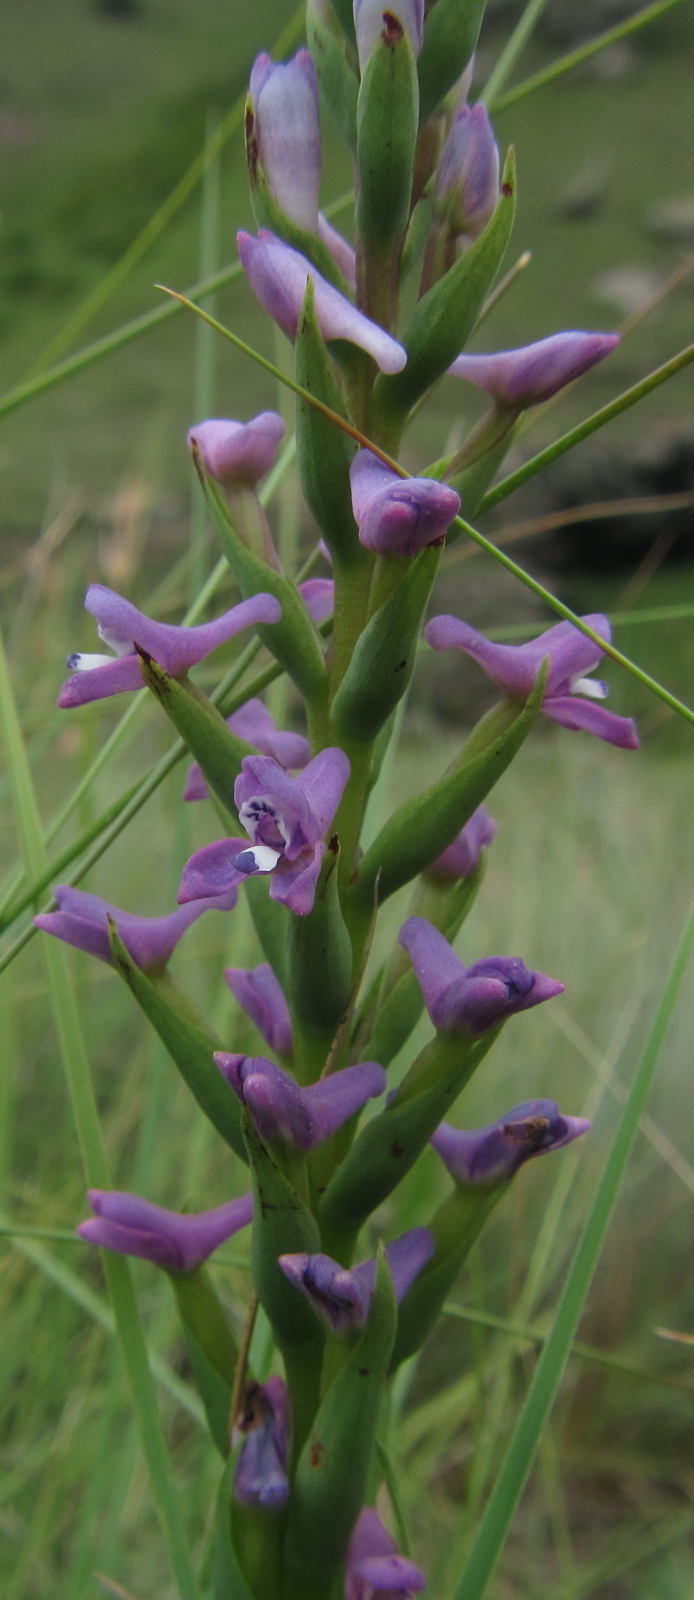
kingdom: Plantae
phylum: Tracheophyta
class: Liliopsida
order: Asparagales
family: Orchidaceae
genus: Disa
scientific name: Disa stachyoides
